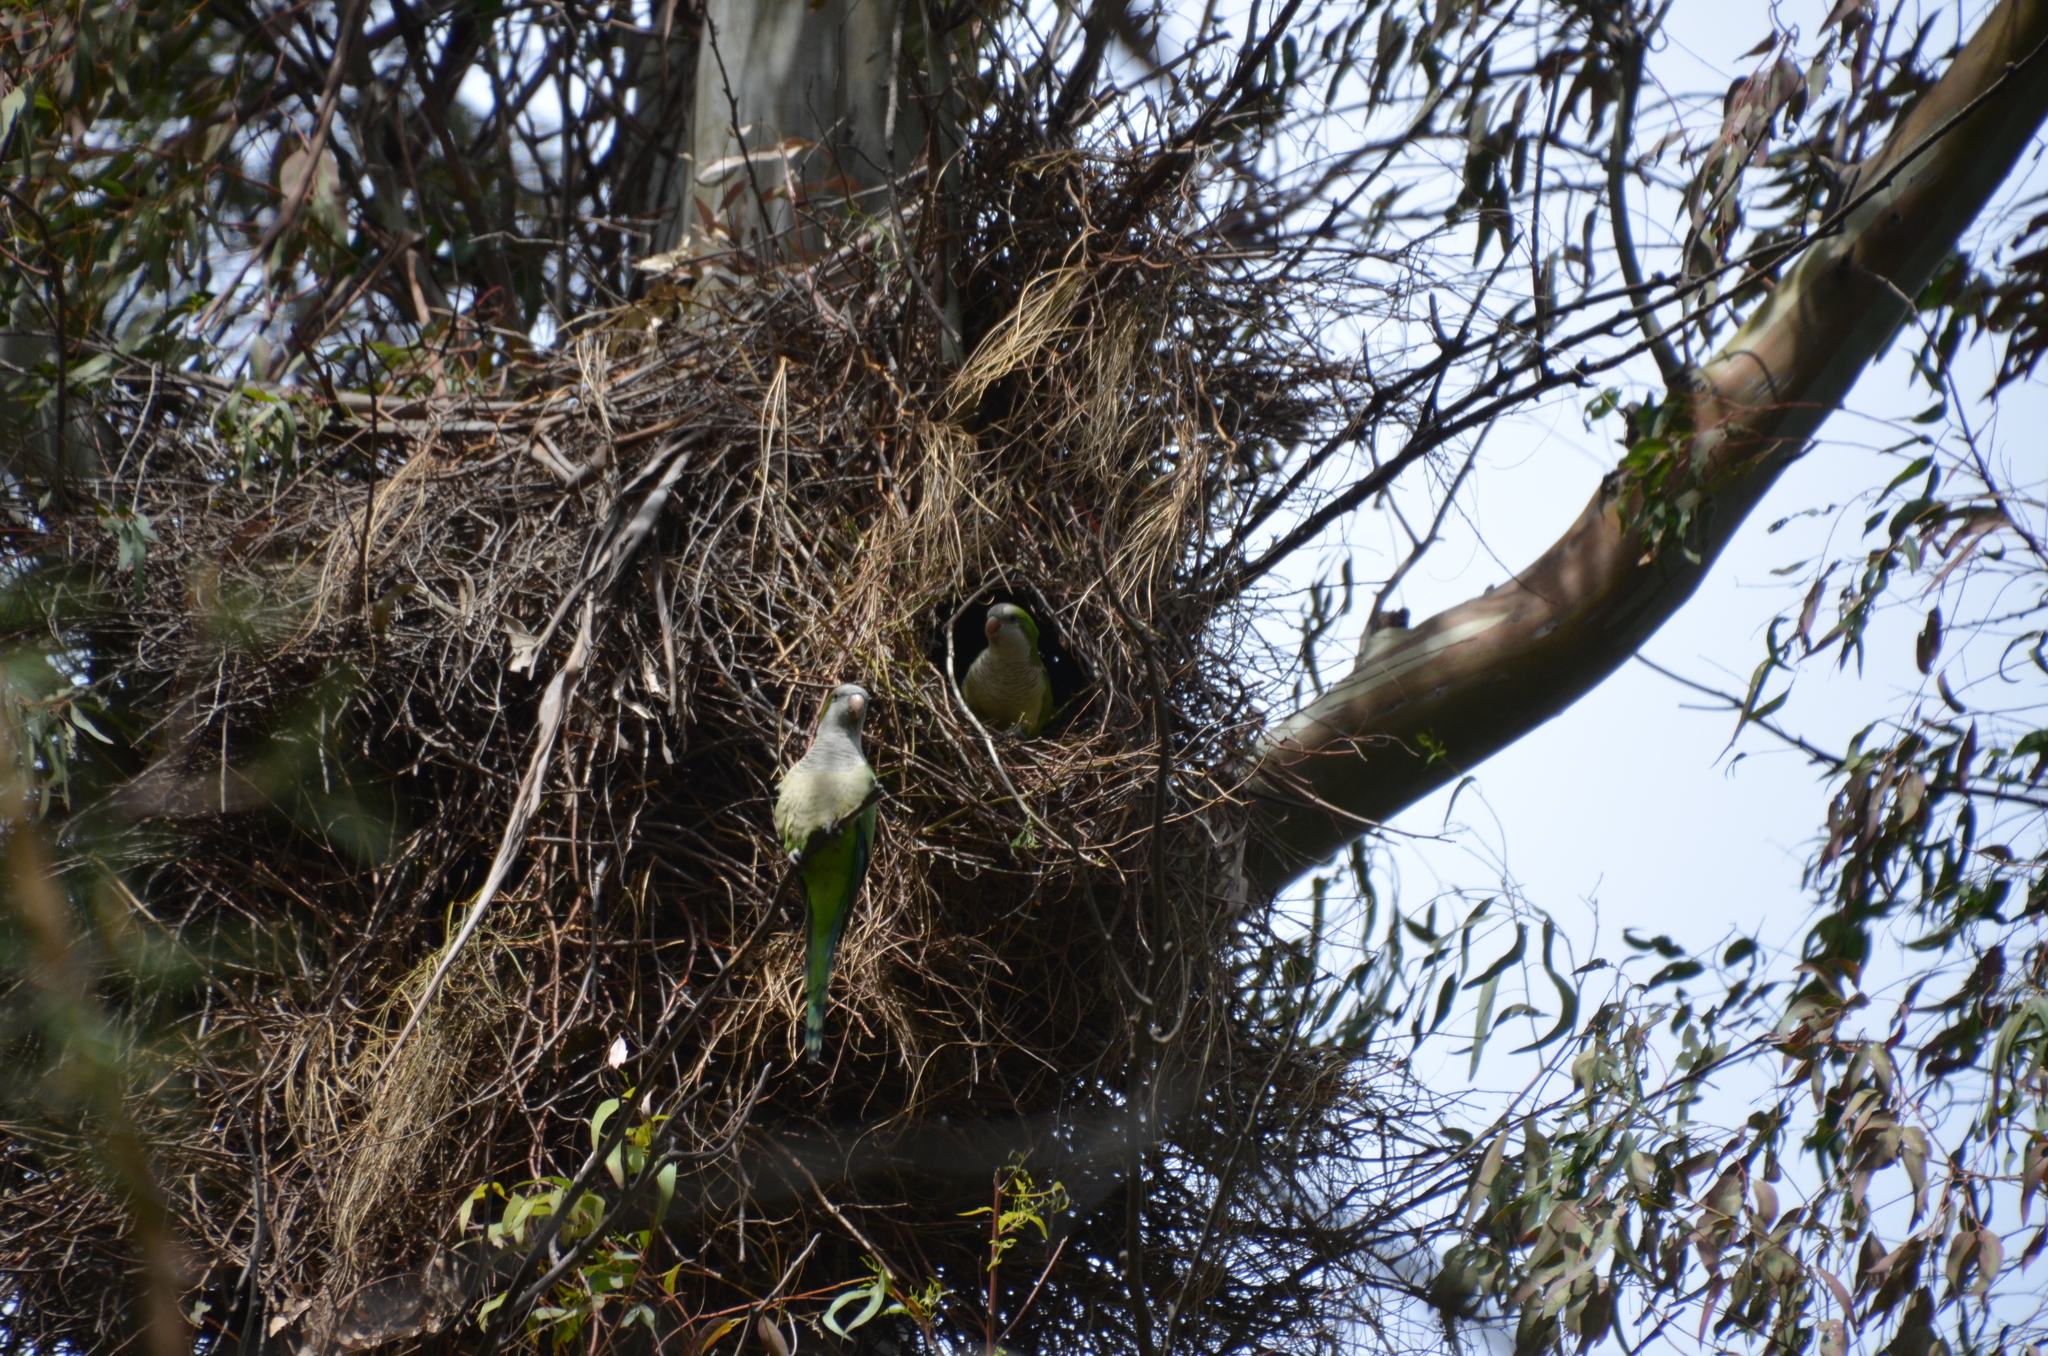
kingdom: Animalia
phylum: Chordata
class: Aves
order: Psittaciformes
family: Psittacidae
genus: Myiopsitta
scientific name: Myiopsitta monachus
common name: Monk parakeet
